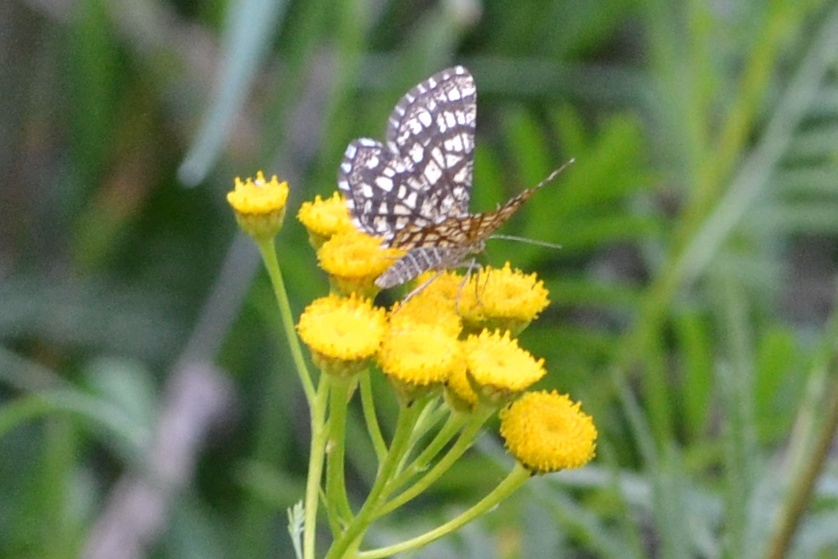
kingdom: Animalia
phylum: Arthropoda
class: Insecta
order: Lepidoptera
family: Geometridae
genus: Chiasmia
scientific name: Chiasmia clathrata
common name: Latticed heath
